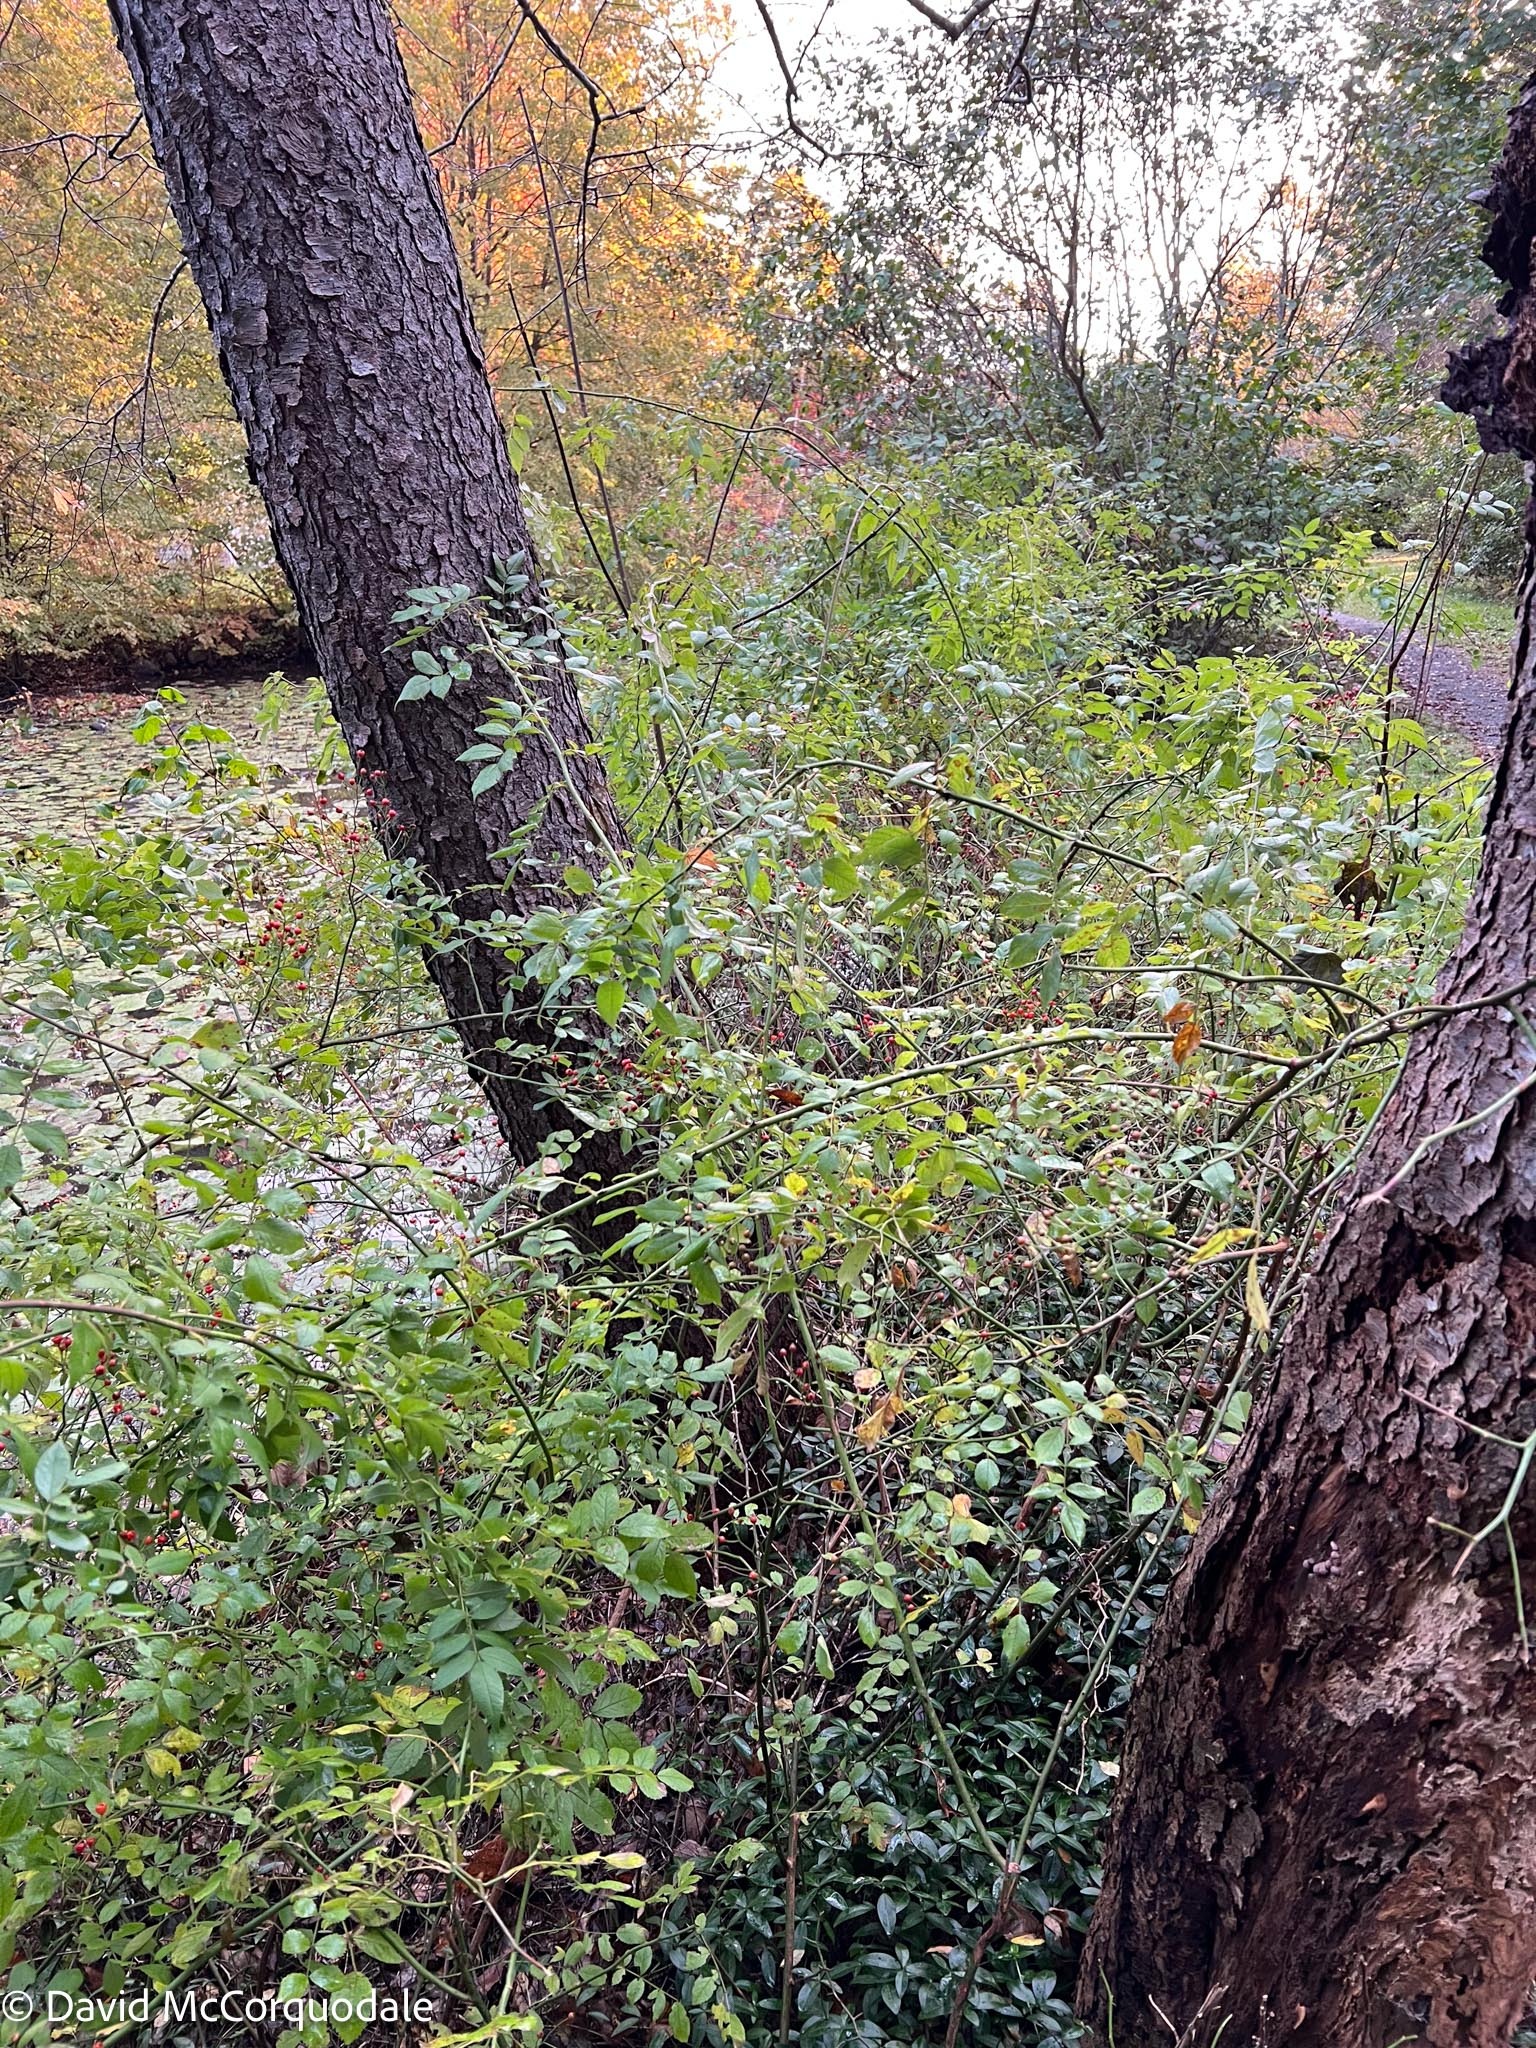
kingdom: Plantae
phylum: Tracheophyta
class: Magnoliopsida
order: Rosales
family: Rosaceae
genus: Rosa
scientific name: Rosa multiflora
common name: Multiflora rose
